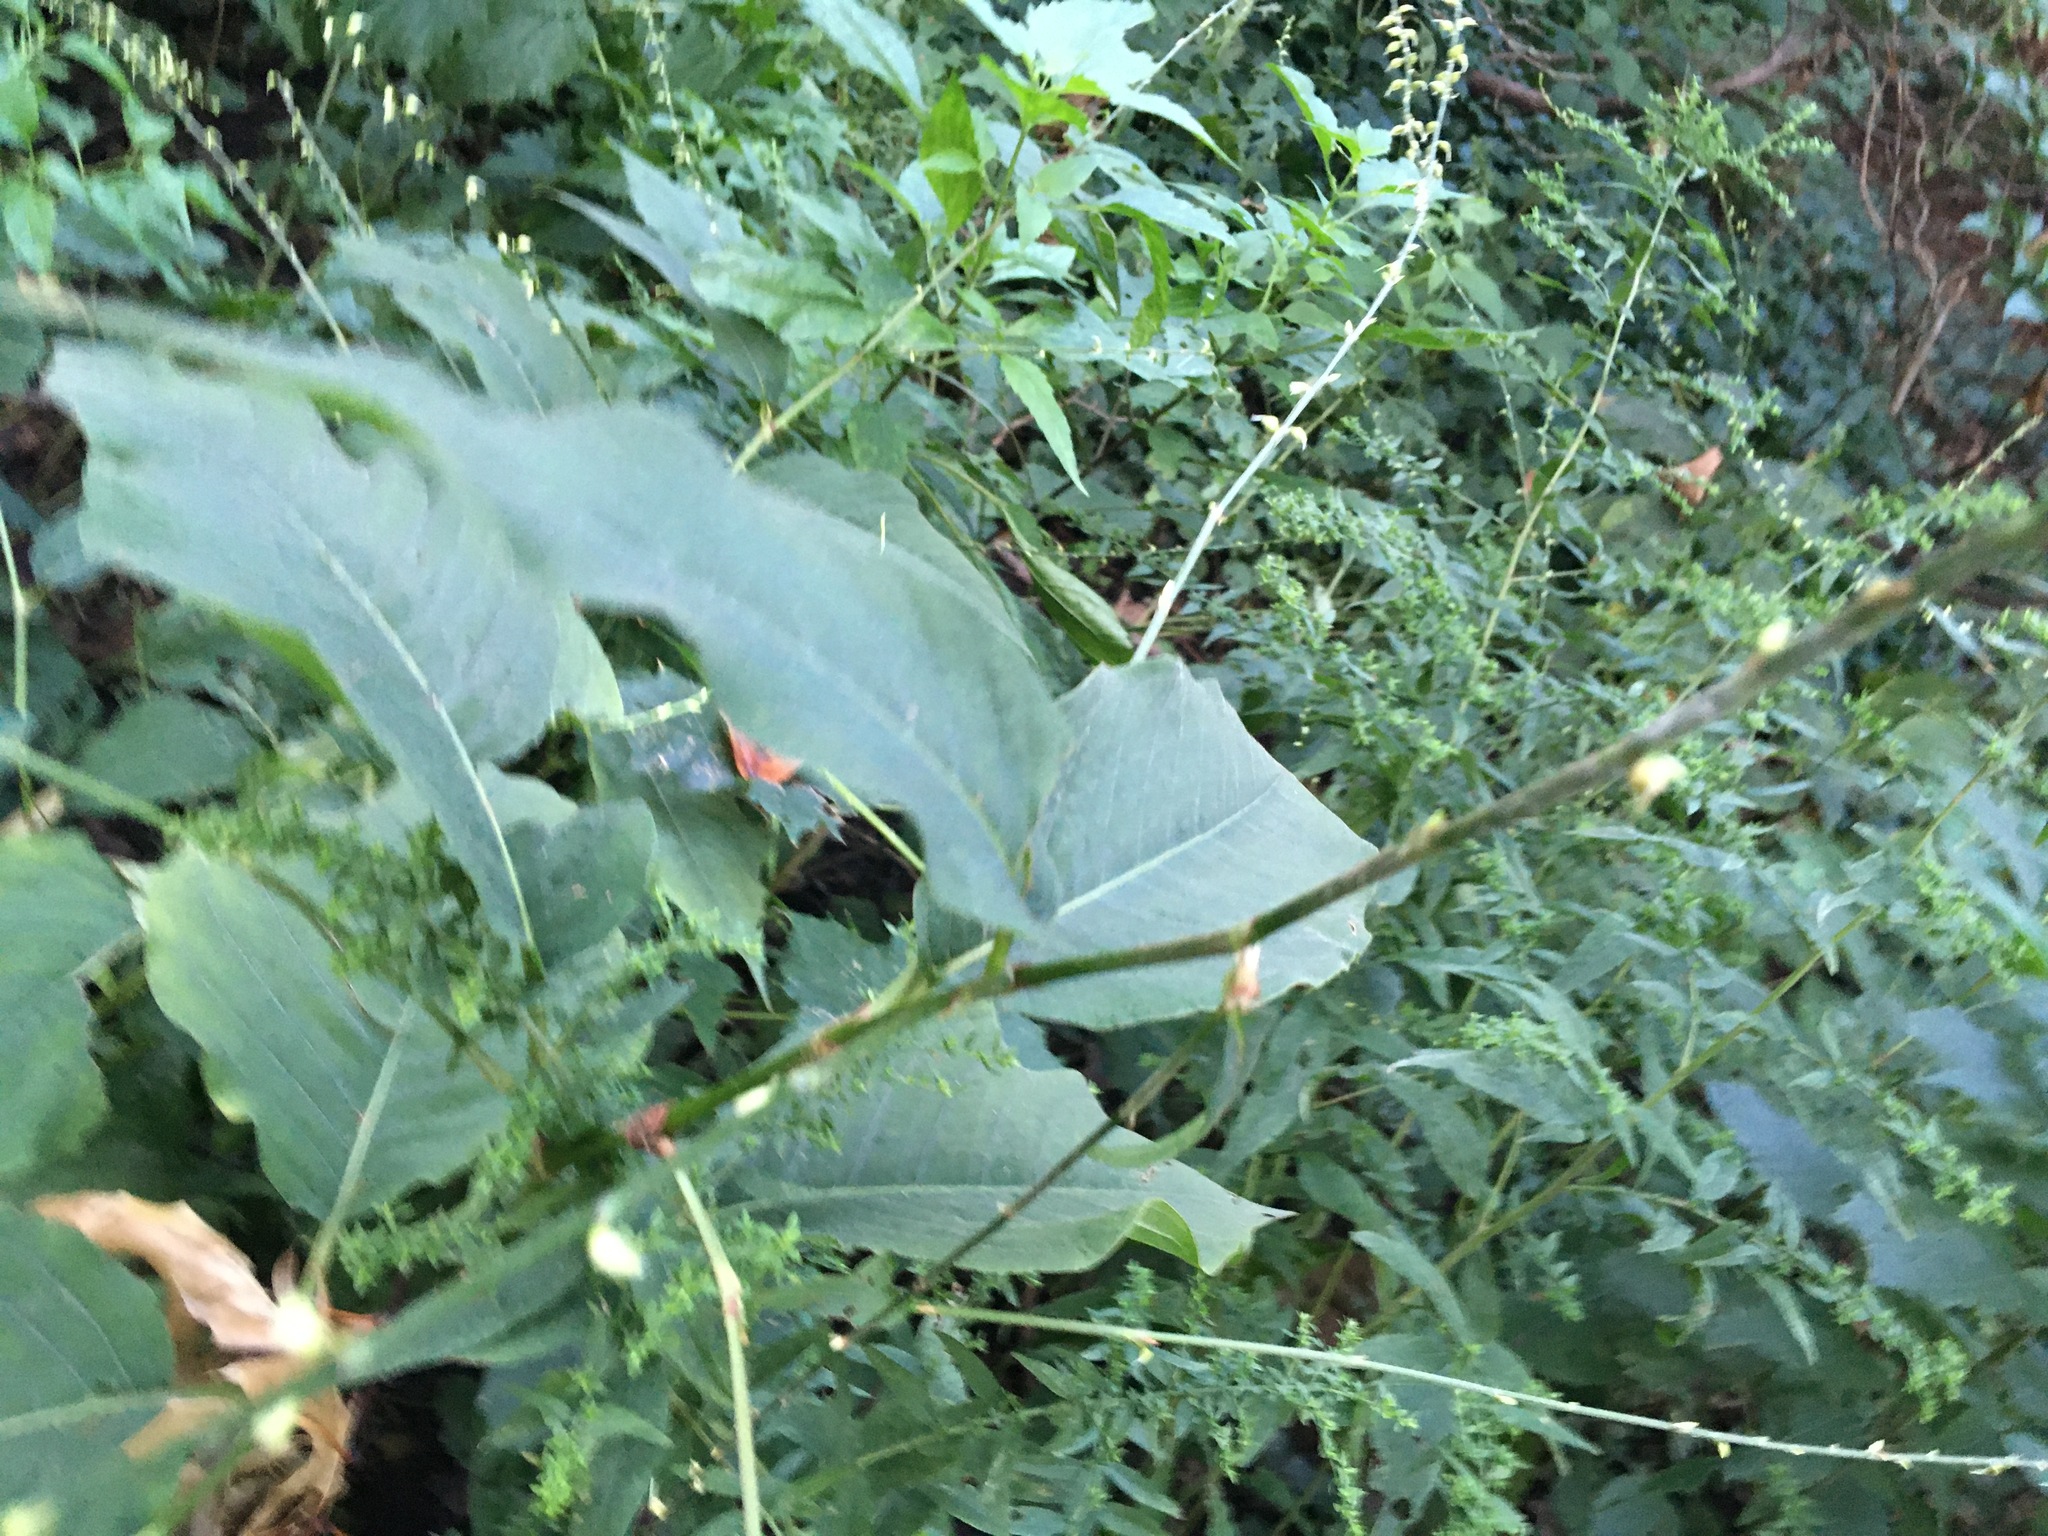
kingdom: Plantae
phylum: Tracheophyta
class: Magnoliopsida
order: Caryophyllales
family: Polygonaceae
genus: Persicaria
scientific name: Persicaria virginiana
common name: Jumpseed
